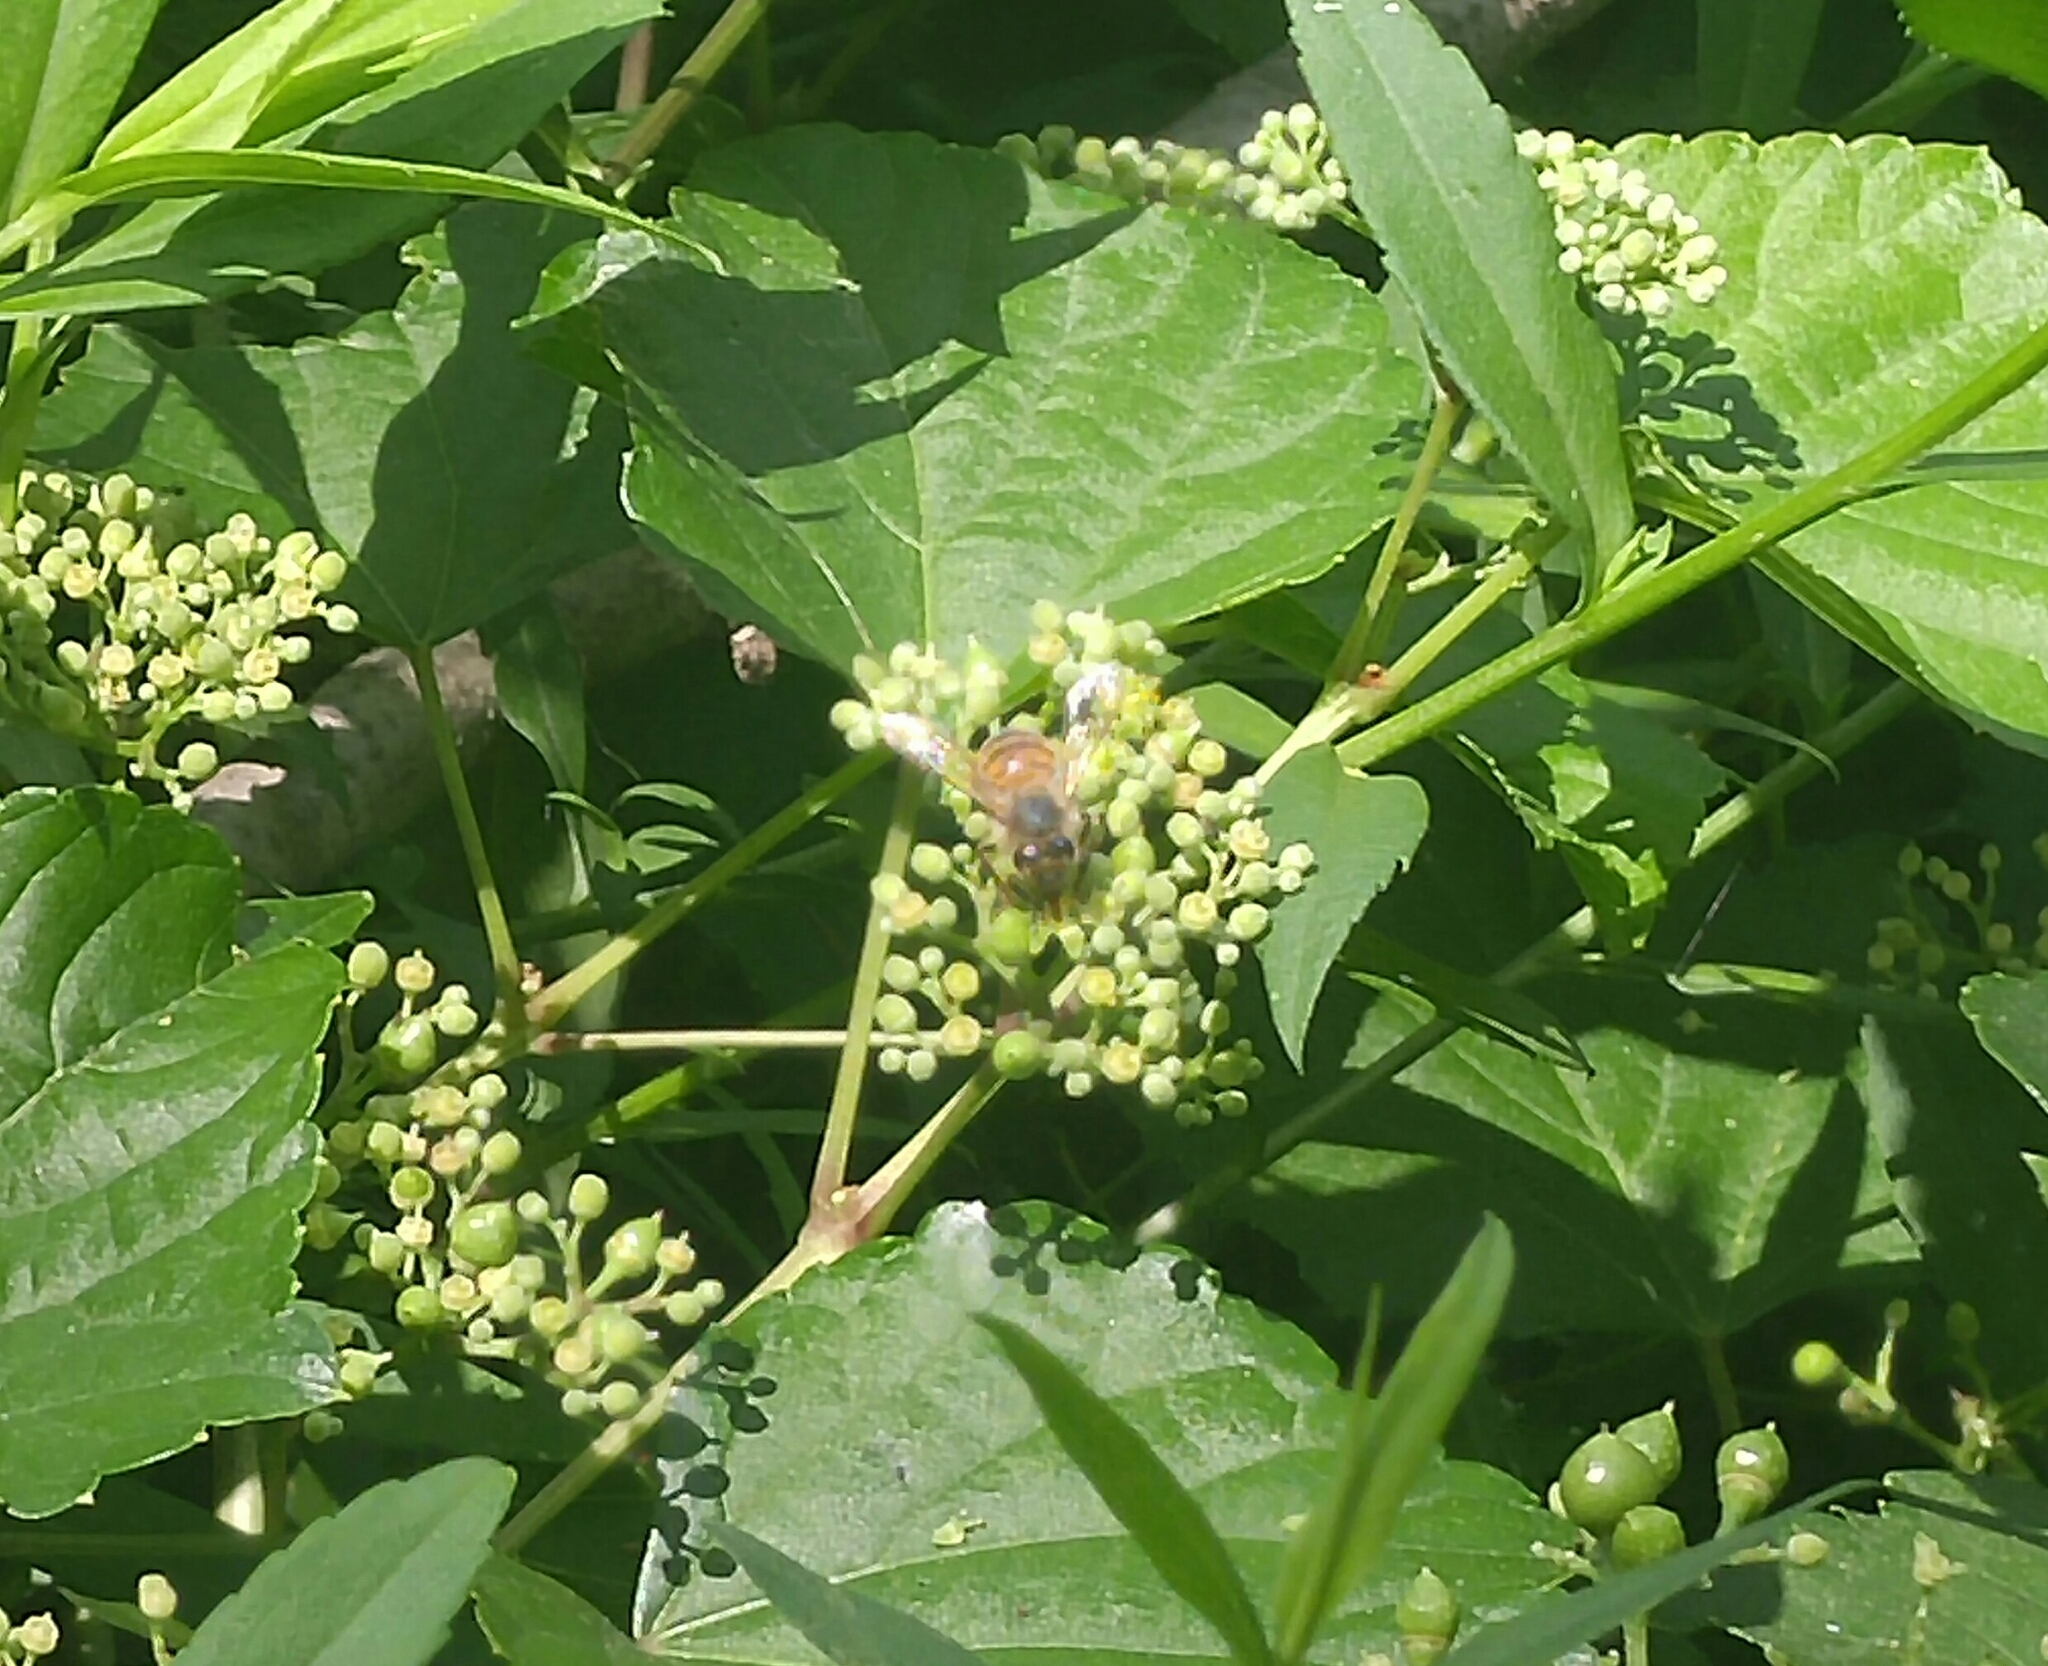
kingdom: Animalia
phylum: Arthropoda
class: Insecta
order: Hymenoptera
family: Apidae
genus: Apis
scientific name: Apis mellifera
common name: Honey bee
